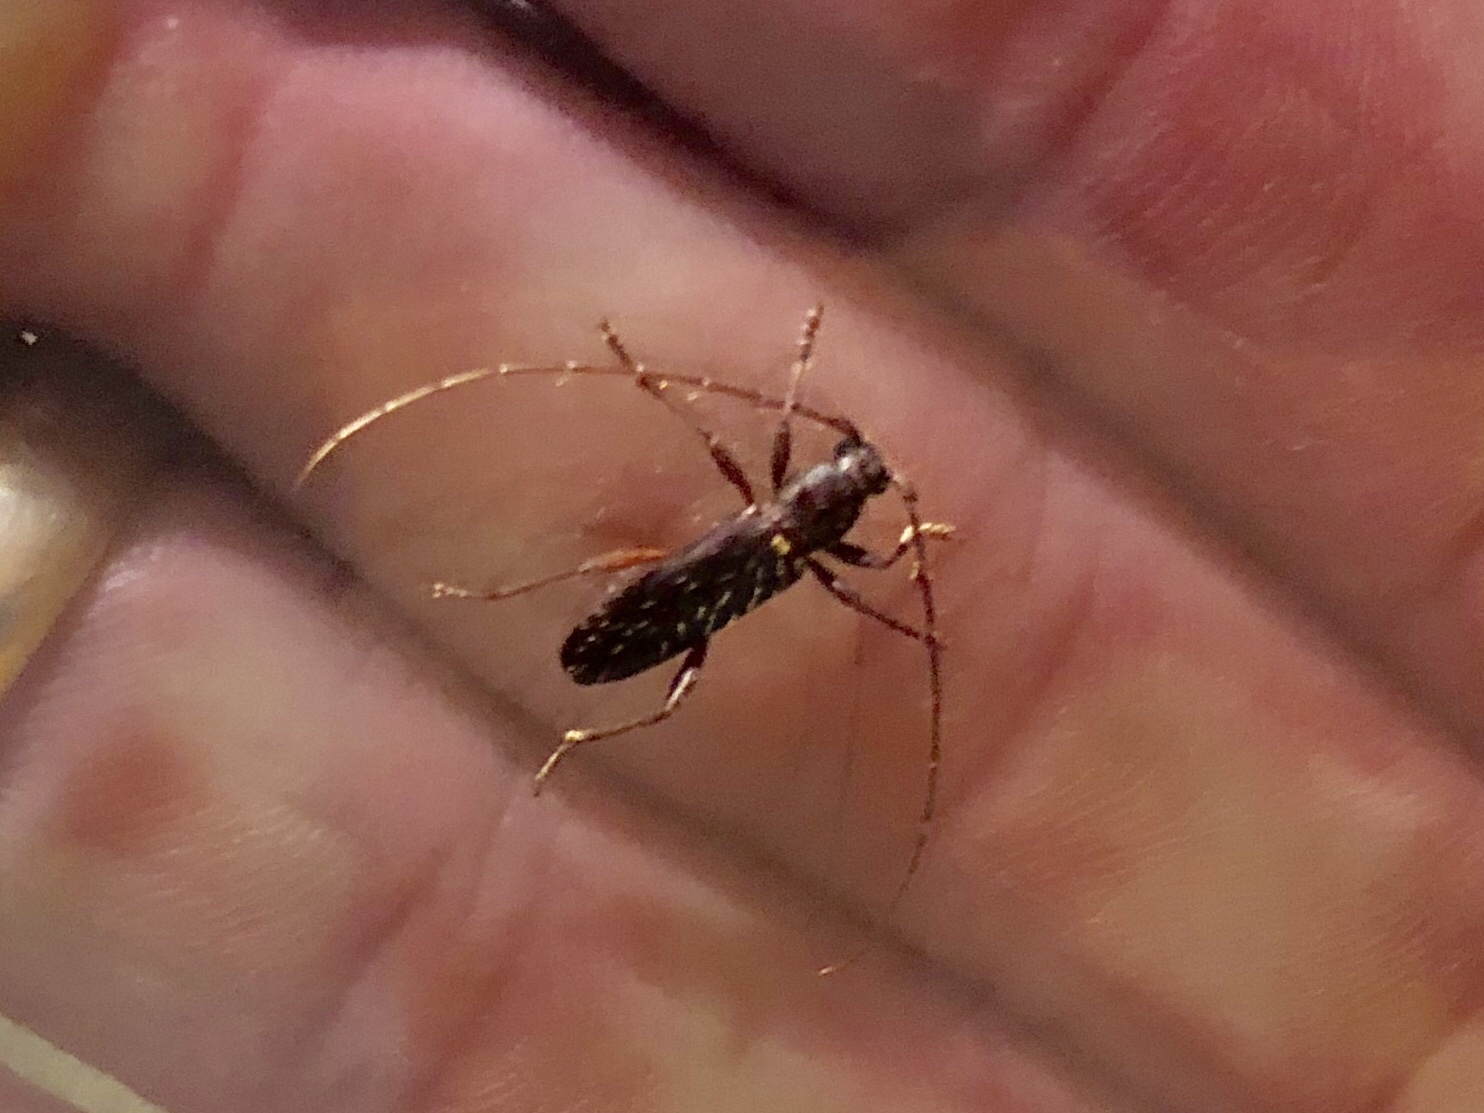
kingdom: Animalia
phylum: Arthropoda
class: Insecta
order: Coleoptera
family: Cerambycidae
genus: Stenelaphus
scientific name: Stenelaphus alienus
